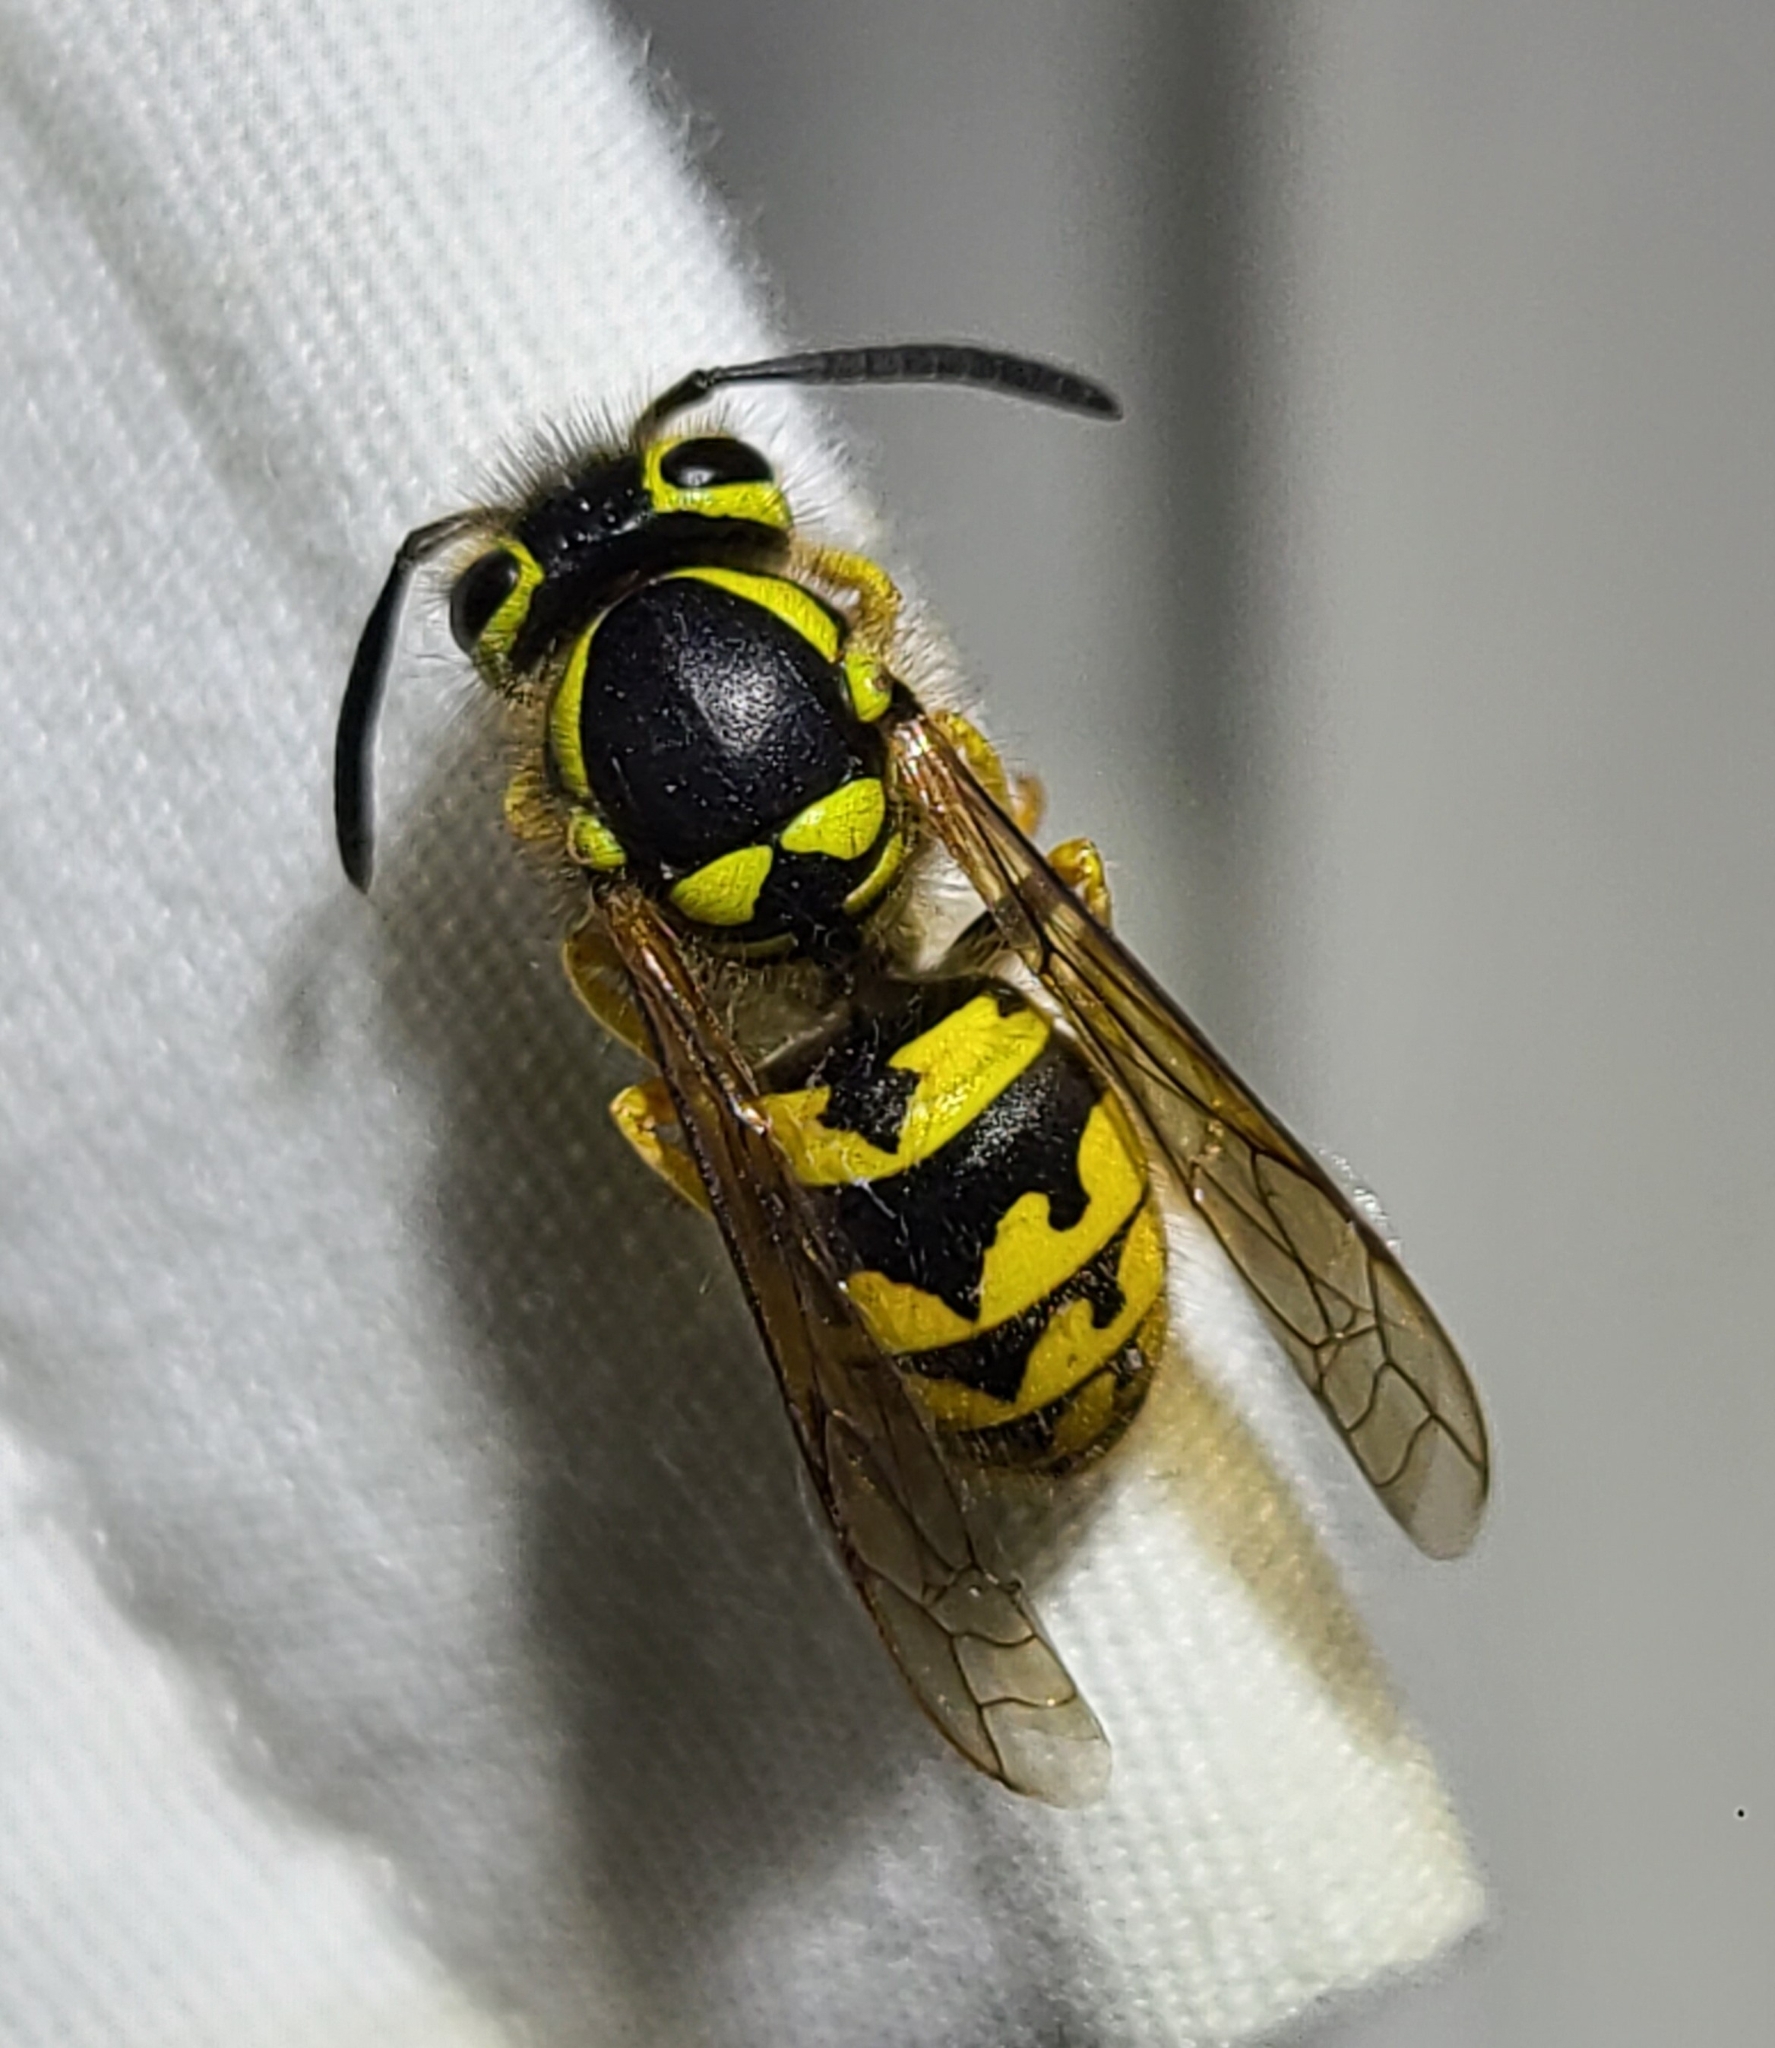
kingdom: Animalia
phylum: Arthropoda
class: Insecta
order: Hymenoptera
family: Vespidae
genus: Vespula
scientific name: Vespula pensylvanica
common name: Western yellowjacket
